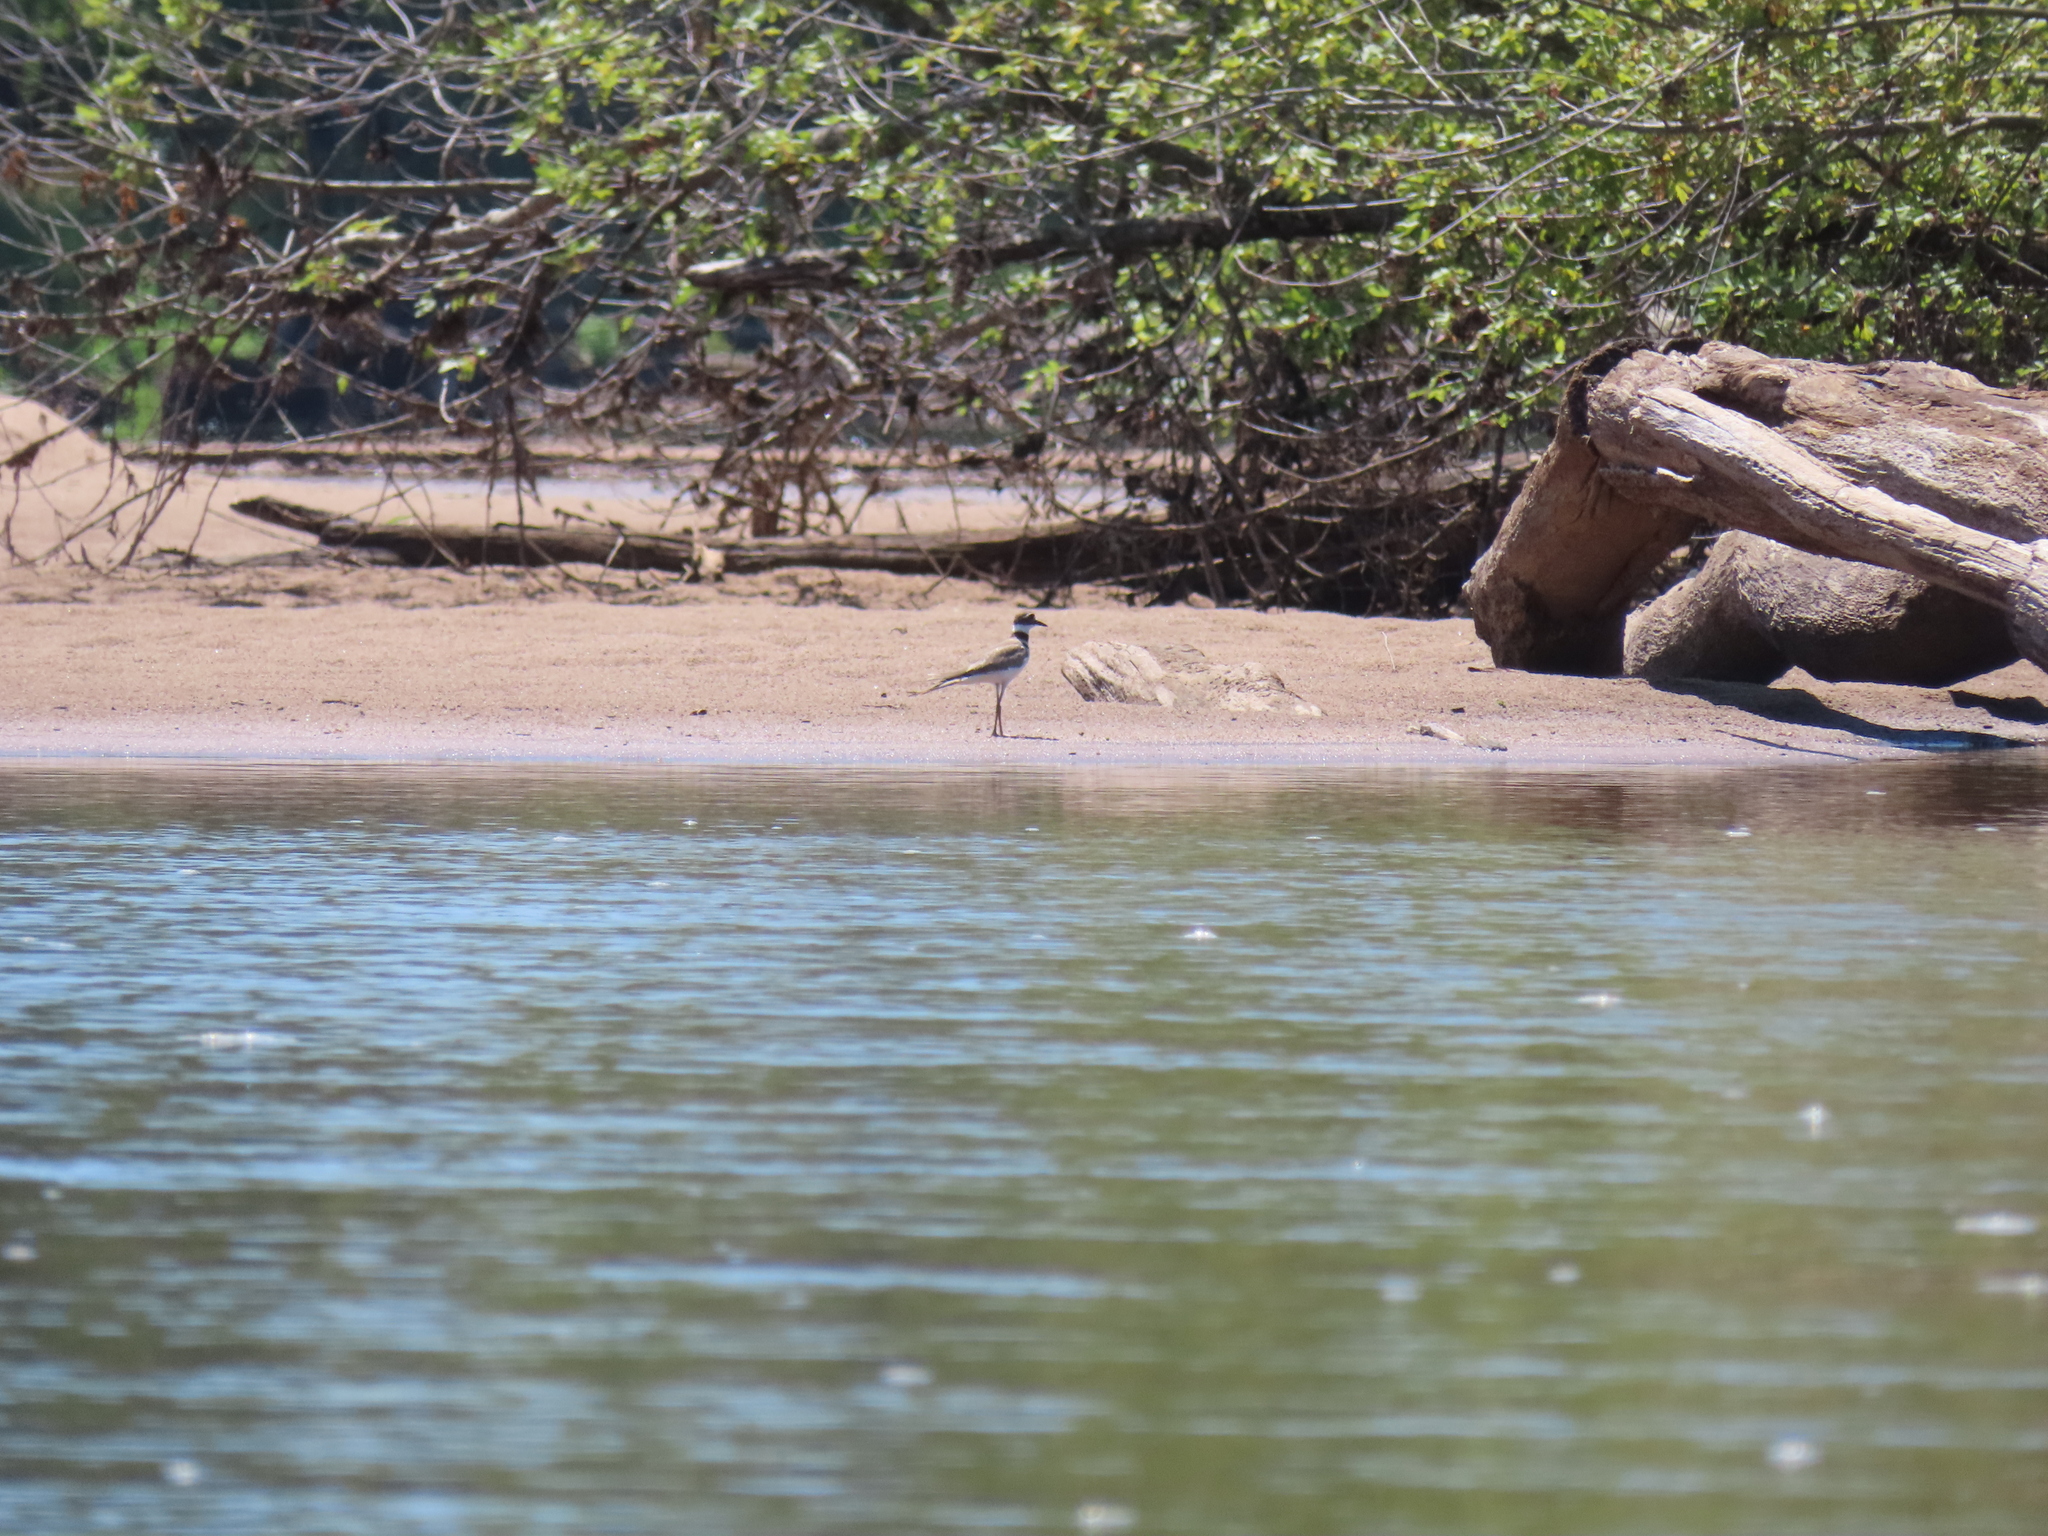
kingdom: Animalia
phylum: Chordata
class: Aves
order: Charadriiformes
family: Charadriidae
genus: Charadrius
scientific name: Charadrius vociferus
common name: Killdeer
